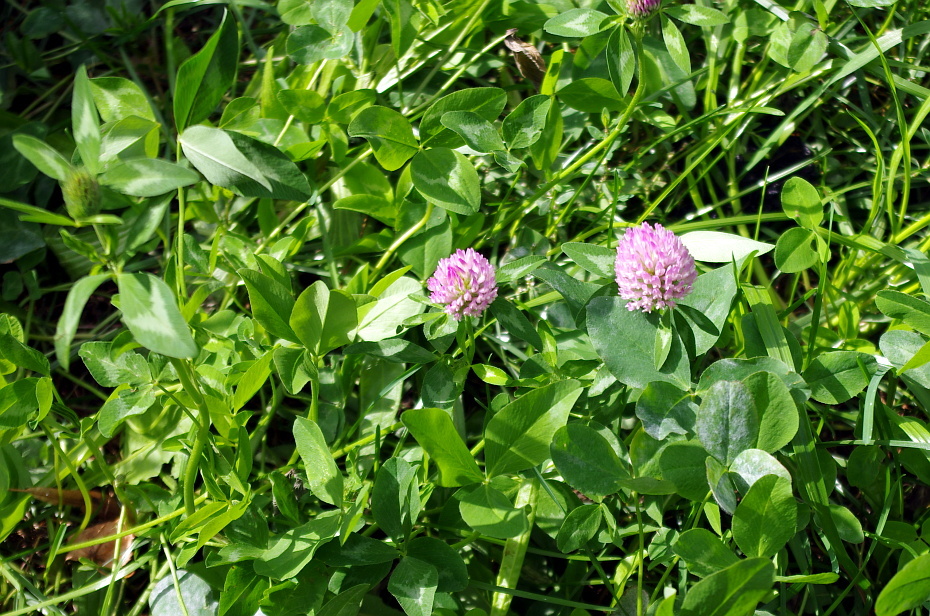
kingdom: Plantae
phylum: Tracheophyta
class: Magnoliopsida
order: Fabales
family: Fabaceae
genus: Trifolium
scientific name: Trifolium pratense
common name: Red clover
